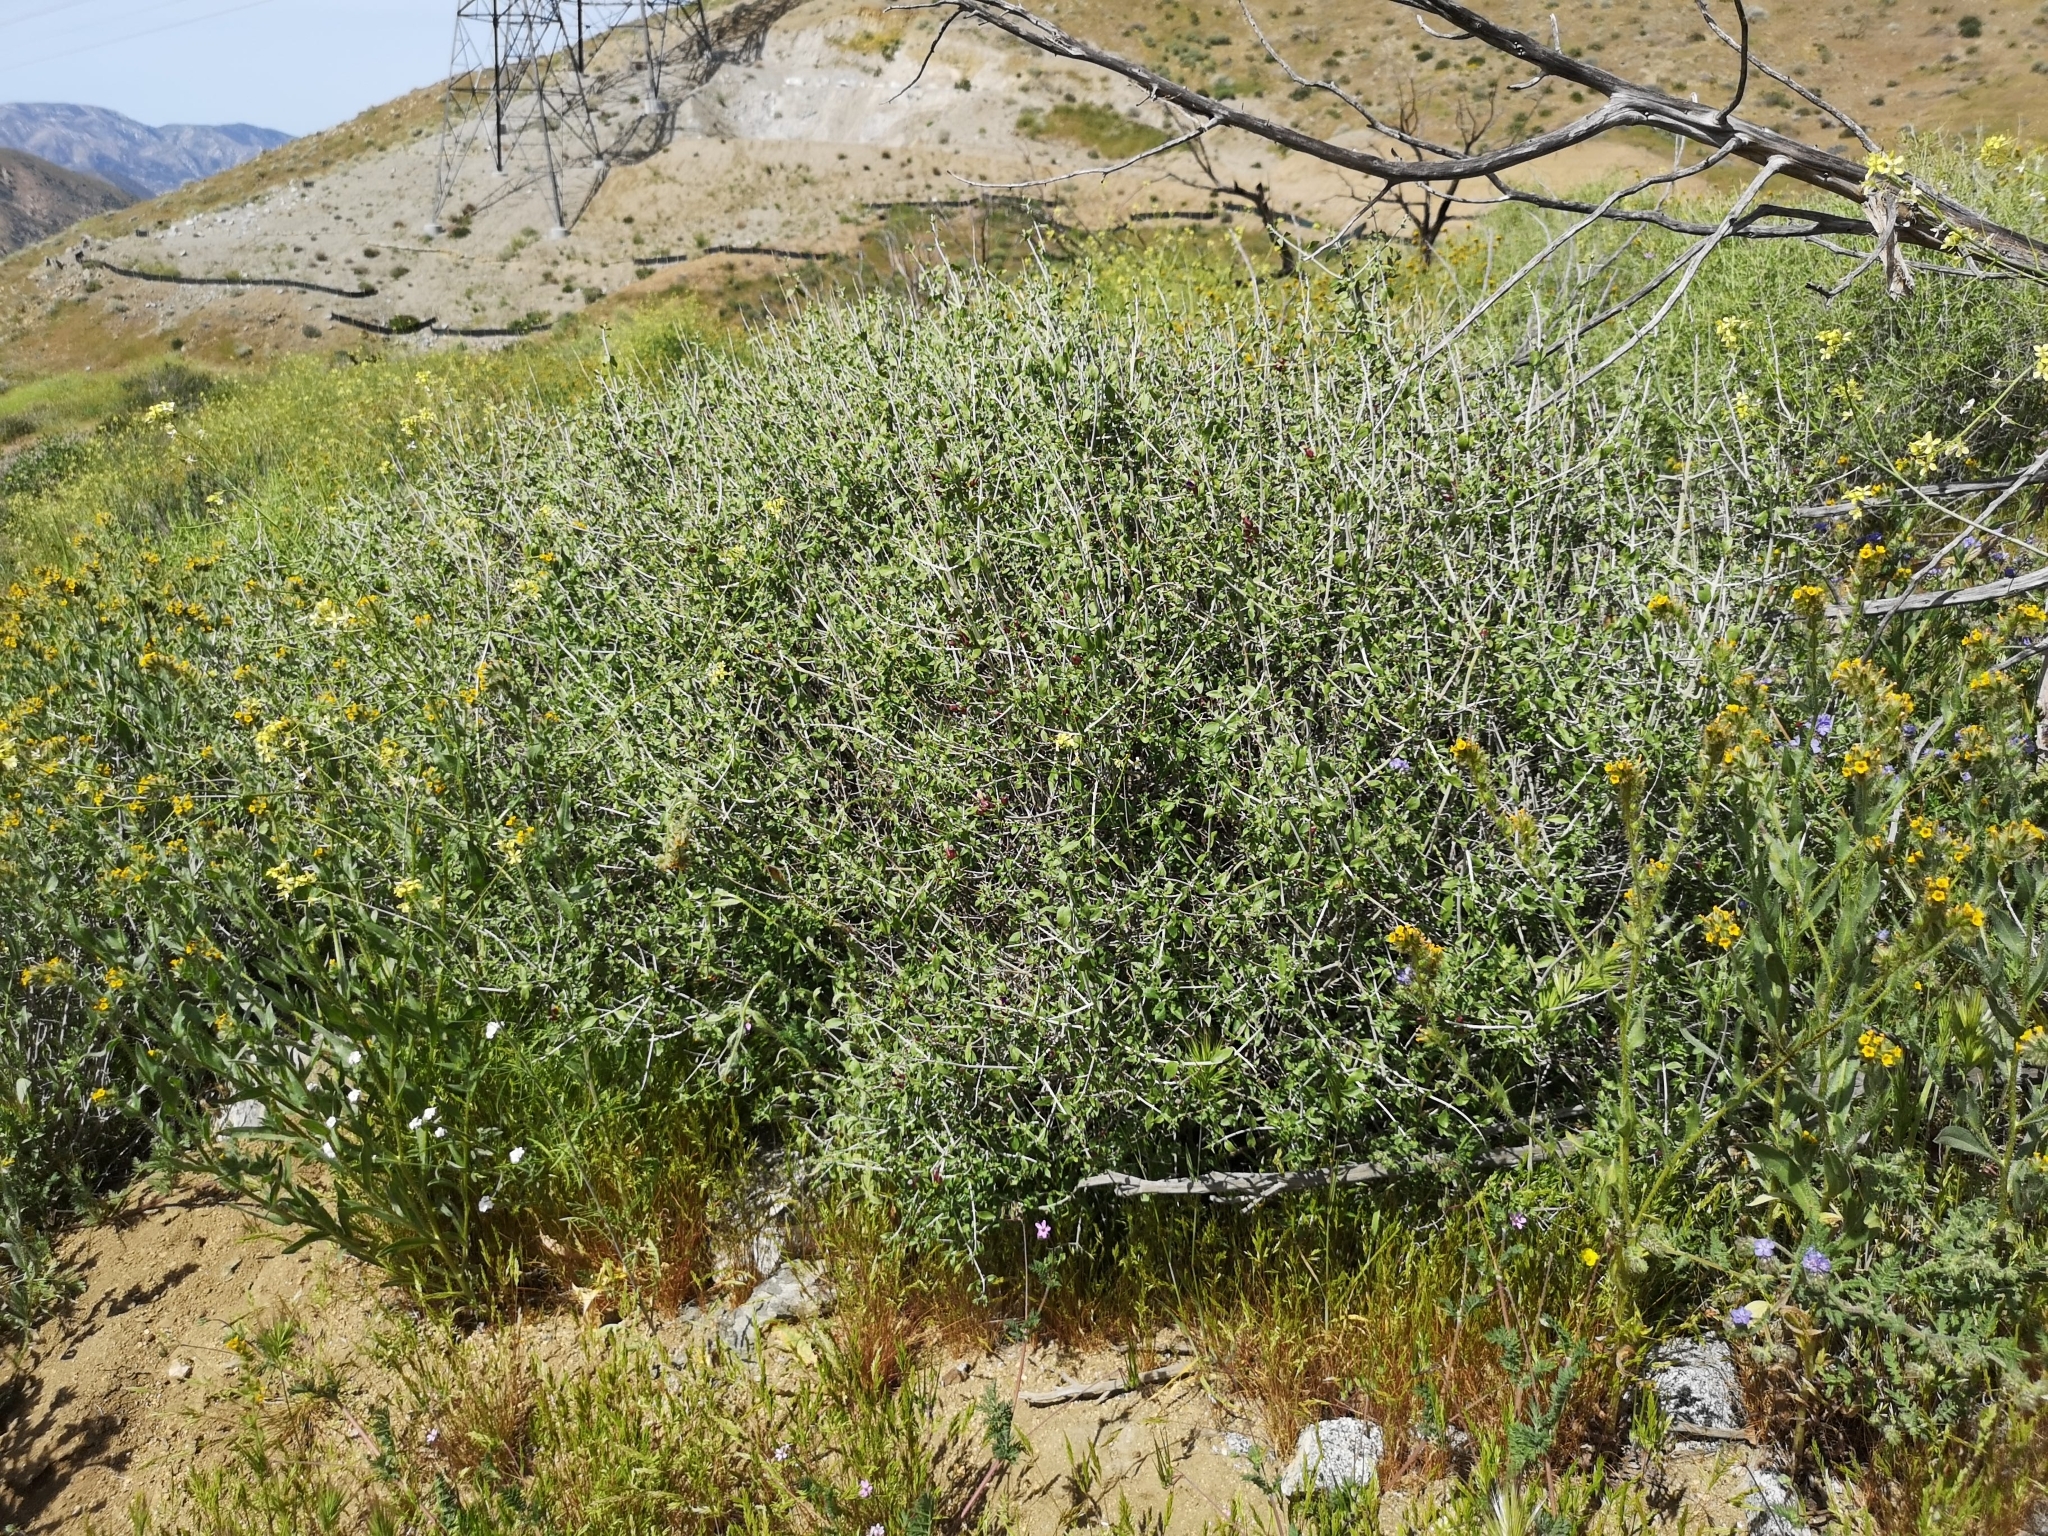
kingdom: Plantae
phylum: Tracheophyta
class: Magnoliopsida
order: Lamiales
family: Lamiaceae
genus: Scutellaria
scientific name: Scutellaria mexicana
